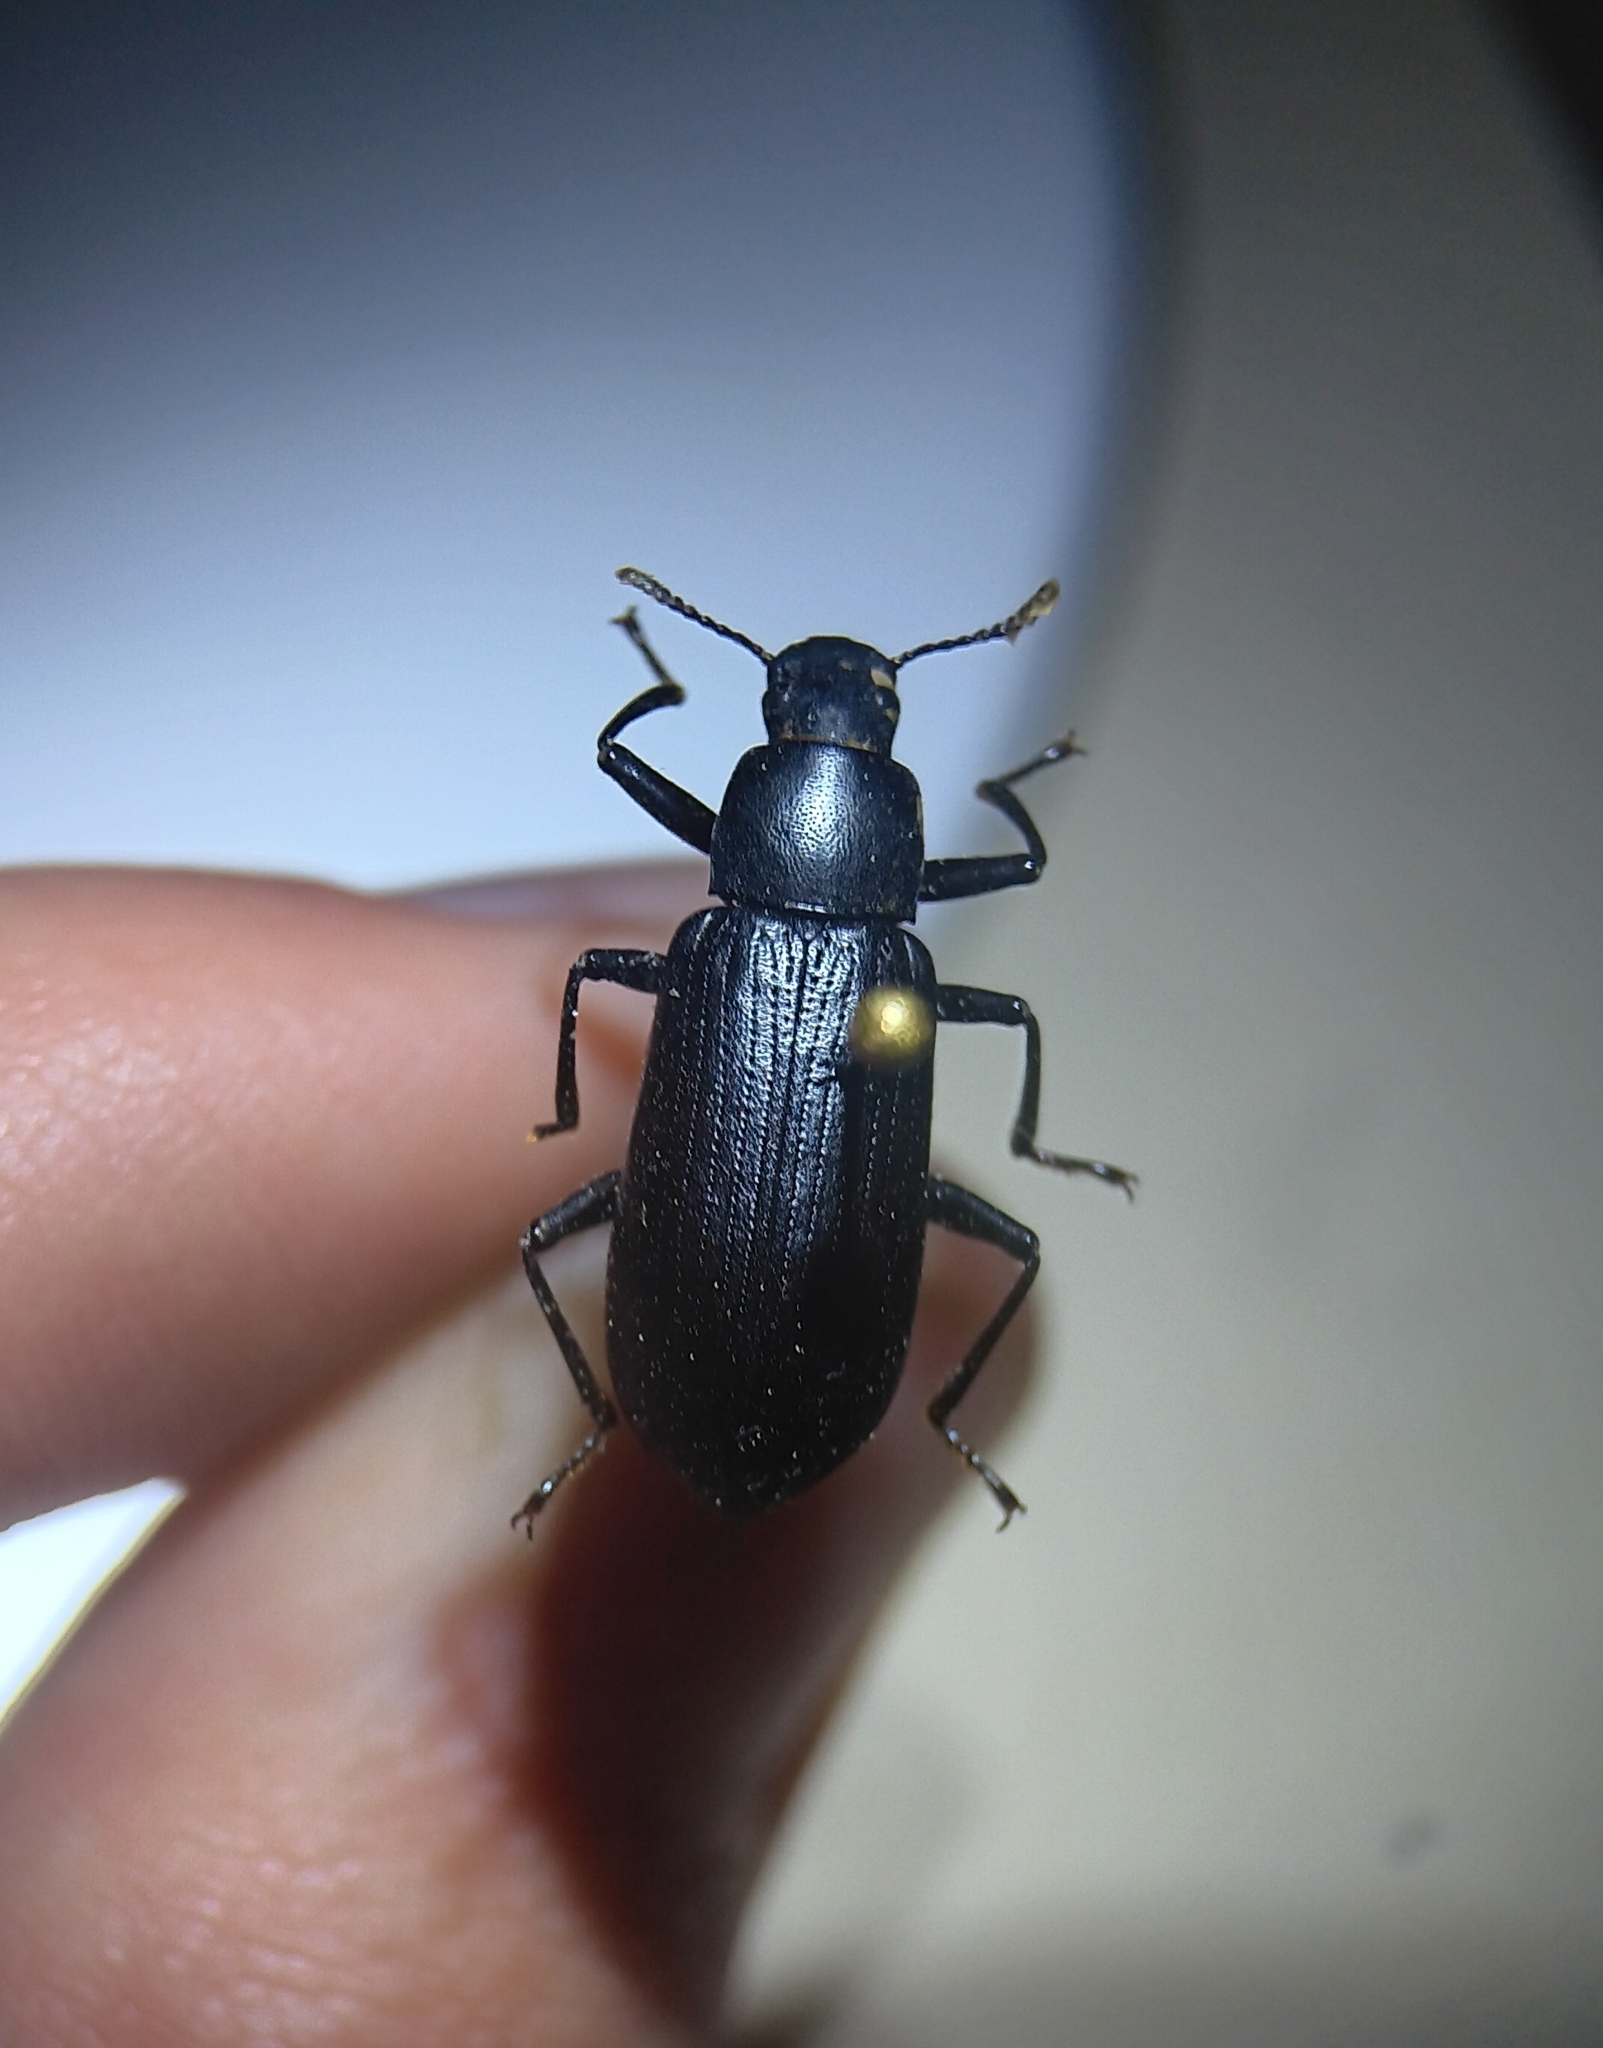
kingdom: Animalia
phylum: Arthropoda
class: Insecta
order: Coleoptera
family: Tenebrionidae
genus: Alobates
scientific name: Alobates barbatus
